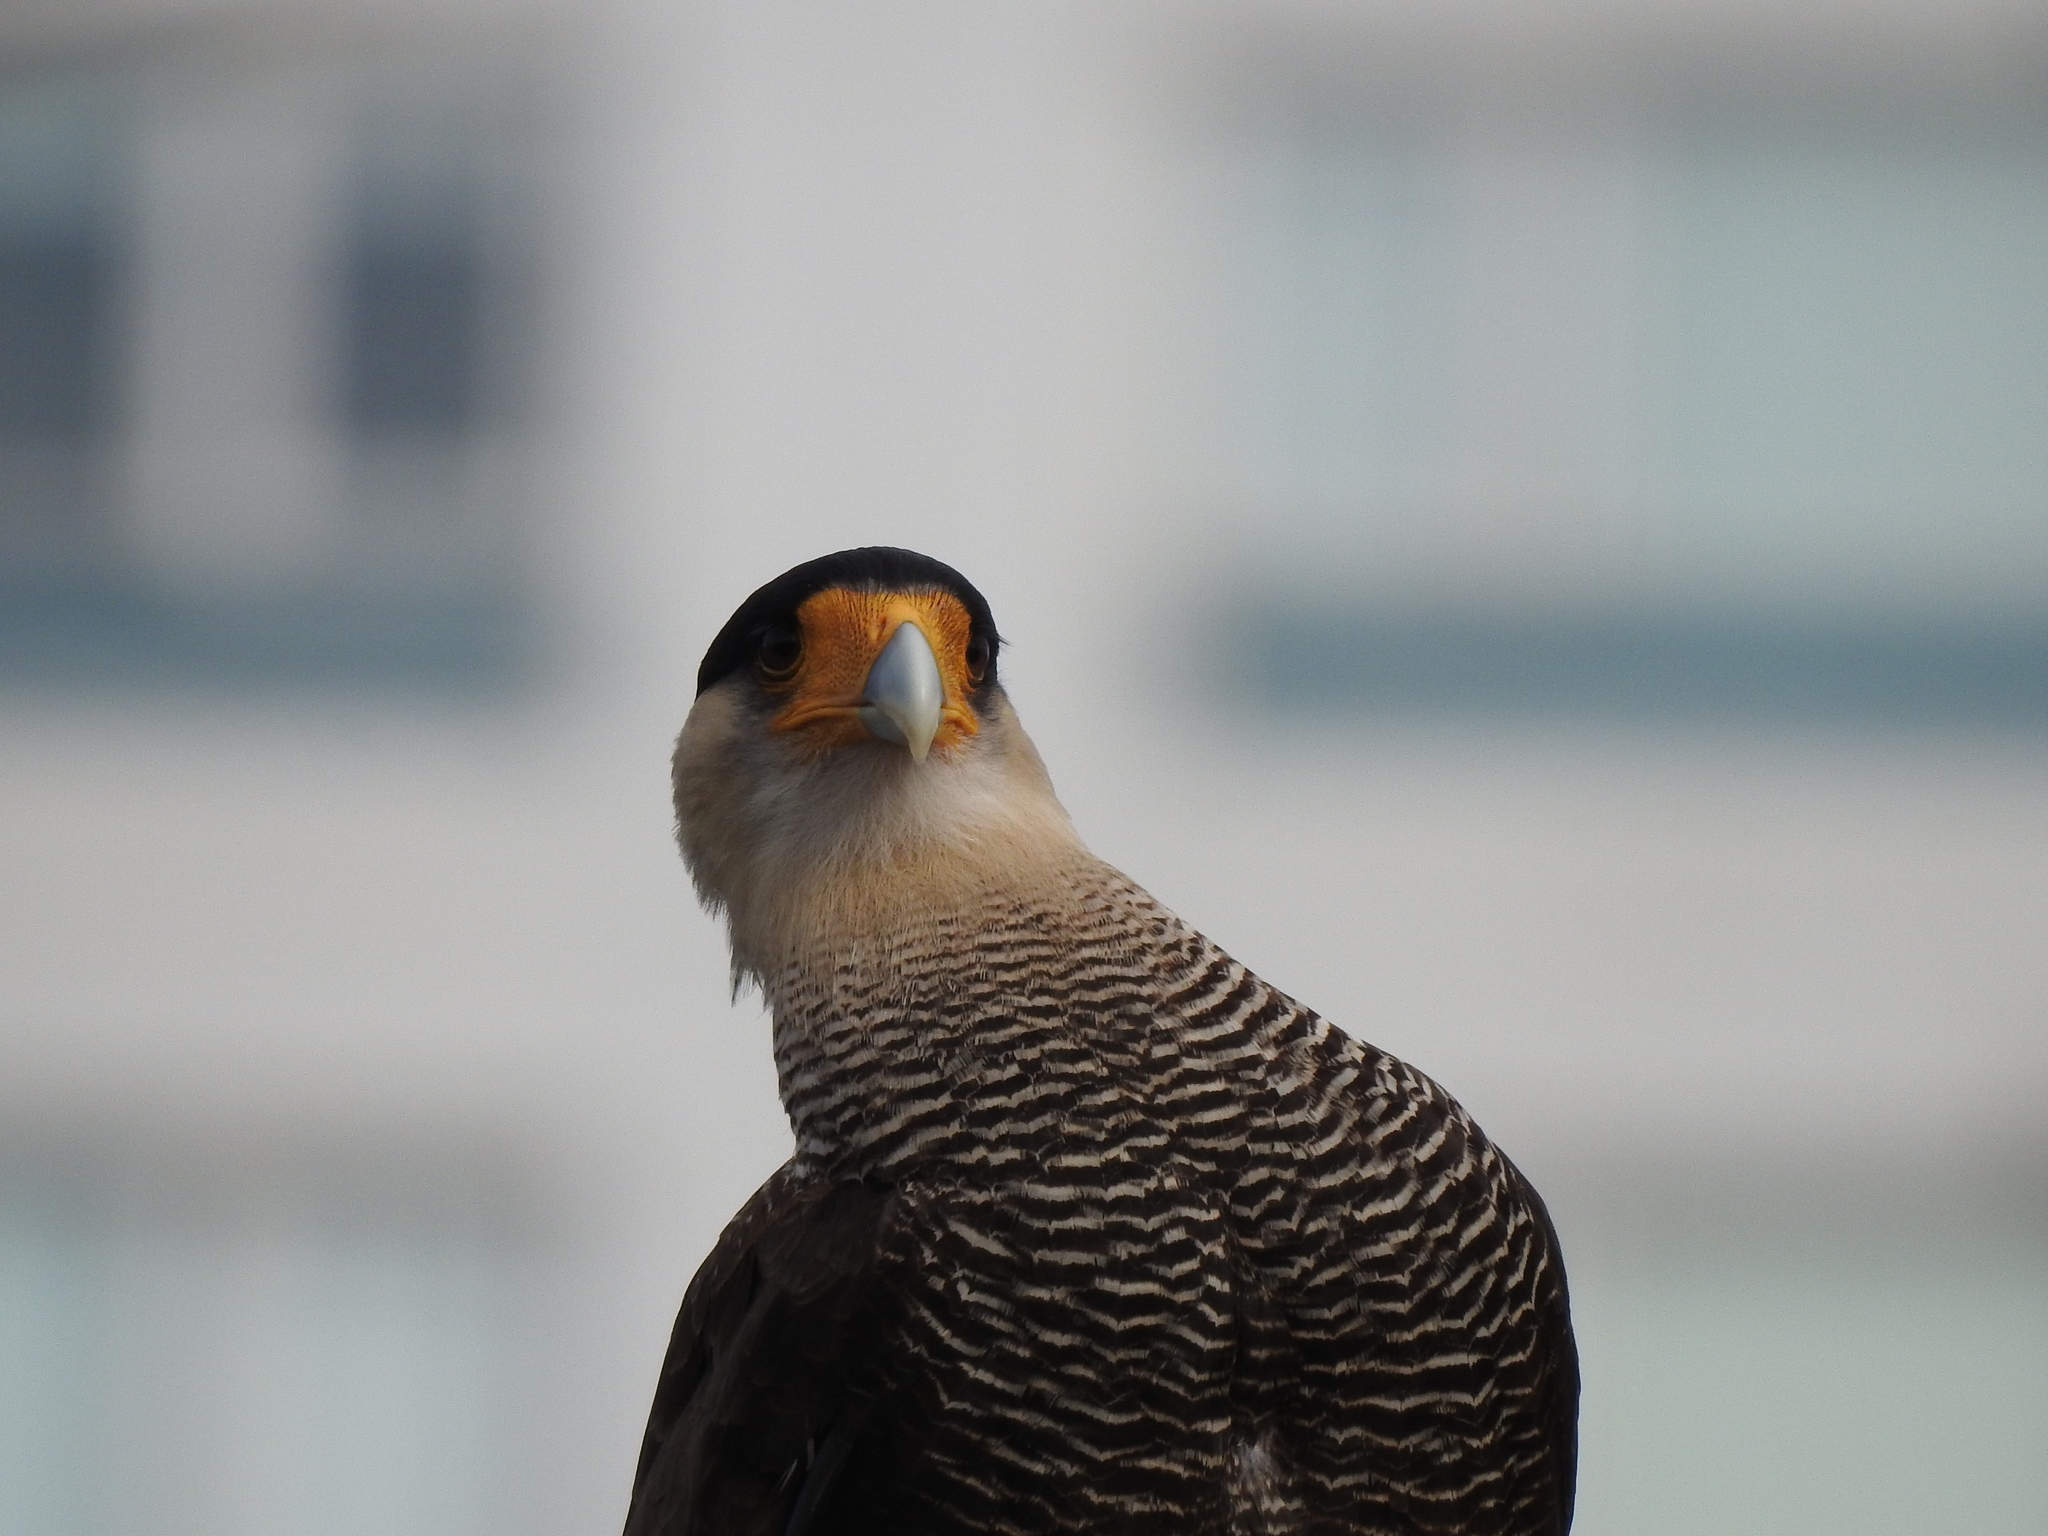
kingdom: Animalia
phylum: Chordata
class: Aves
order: Falconiformes
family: Falconidae
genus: Caracara
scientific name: Caracara plancus
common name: Southern caracara
